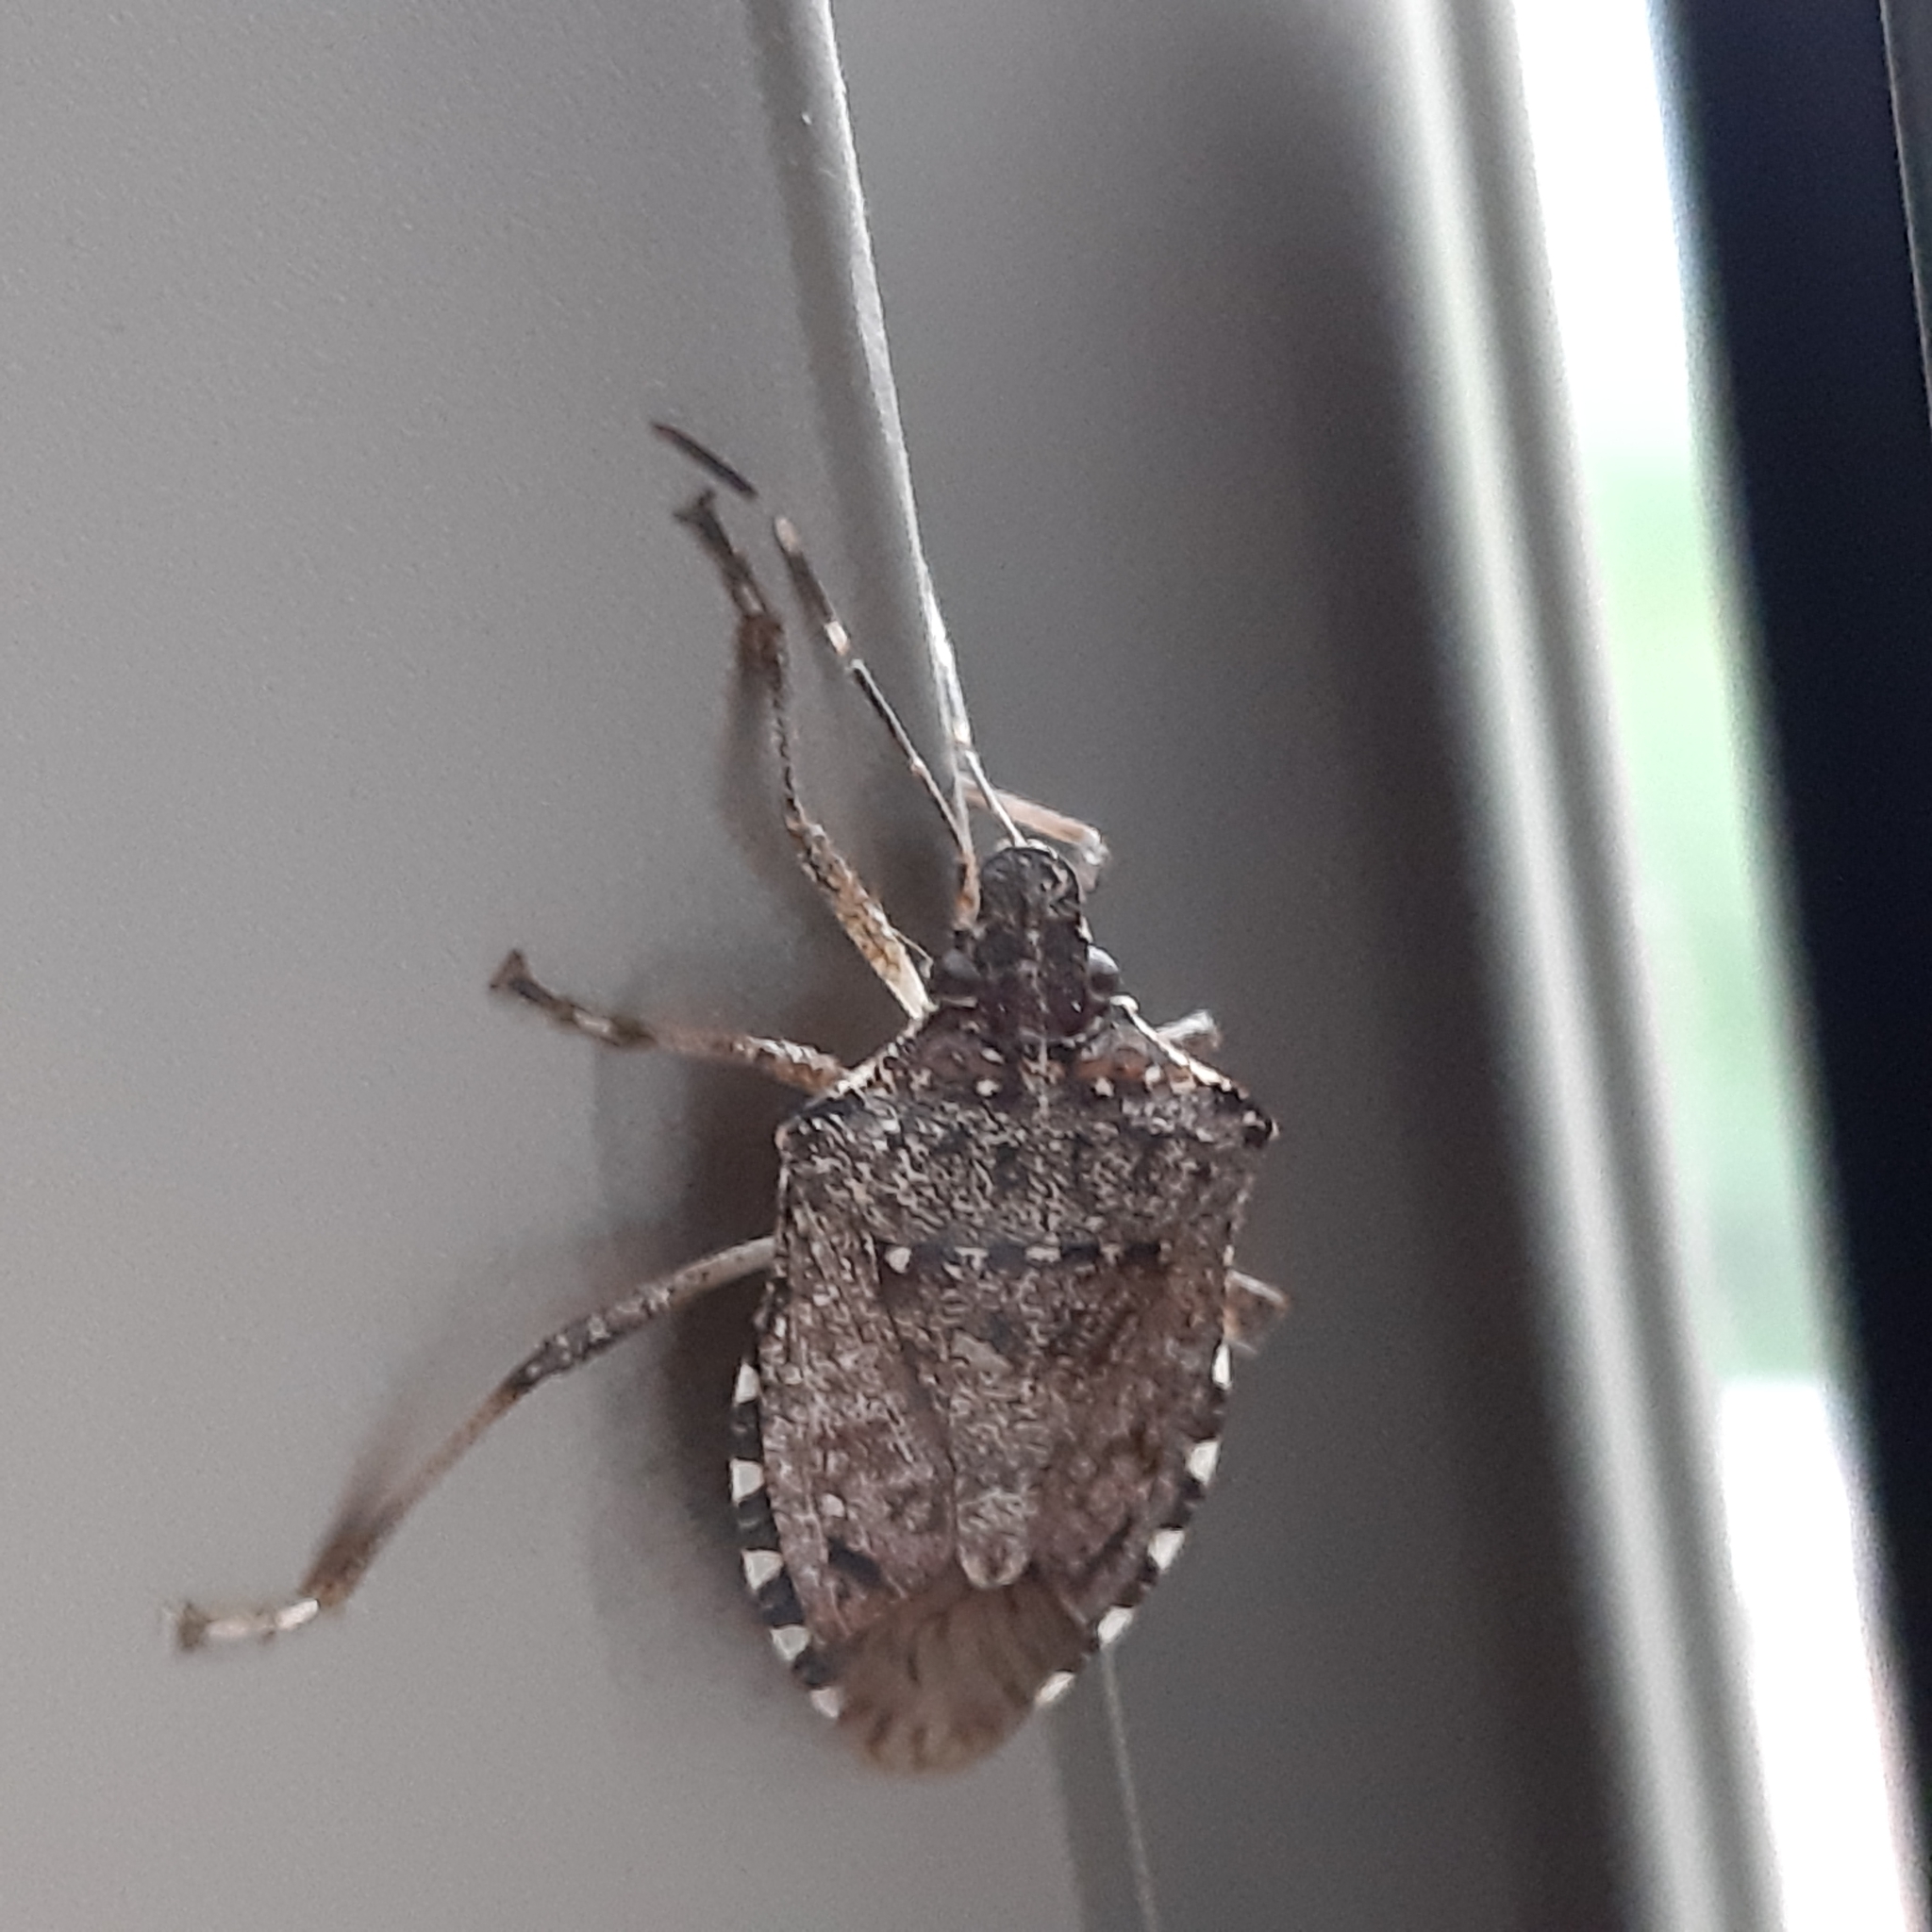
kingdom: Animalia
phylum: Arthropoda
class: Insecta
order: Hemiptera
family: Pentatomidae
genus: Halyomorpha
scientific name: Halyomorpha halys
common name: Brown marmorated stink bug
